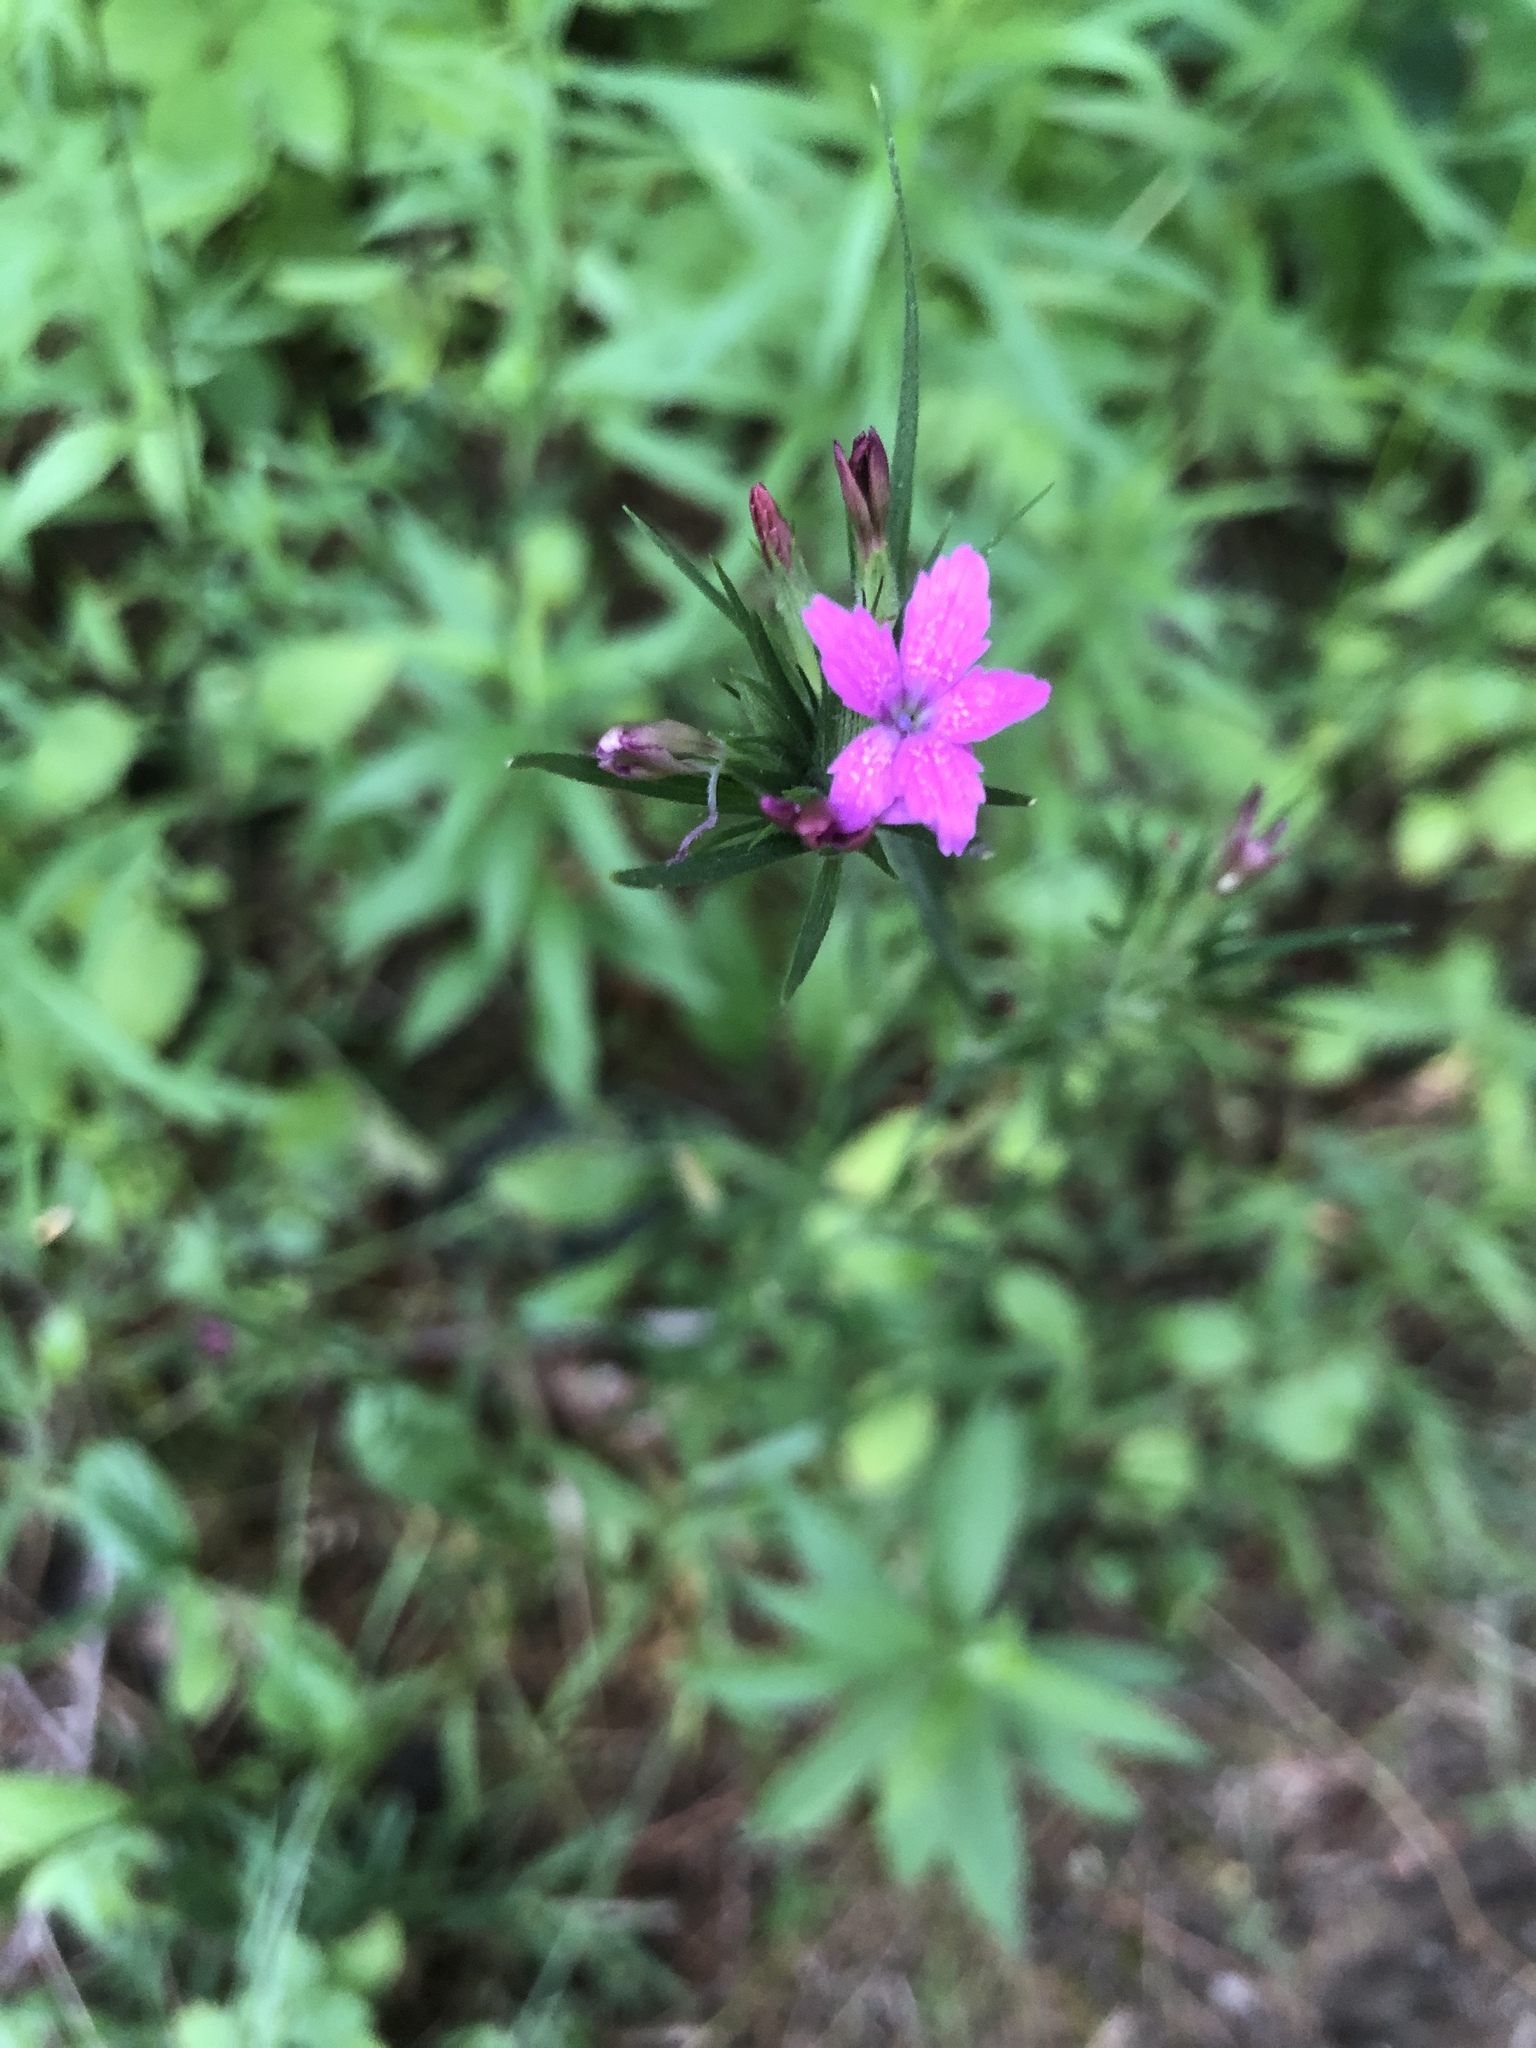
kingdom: Plantae
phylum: Tracheophyta
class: Magnoliopsida
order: Caryophyllales
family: Caryophyllaceae
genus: Dianthus
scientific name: Dianthus armeria
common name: Deptford pink
